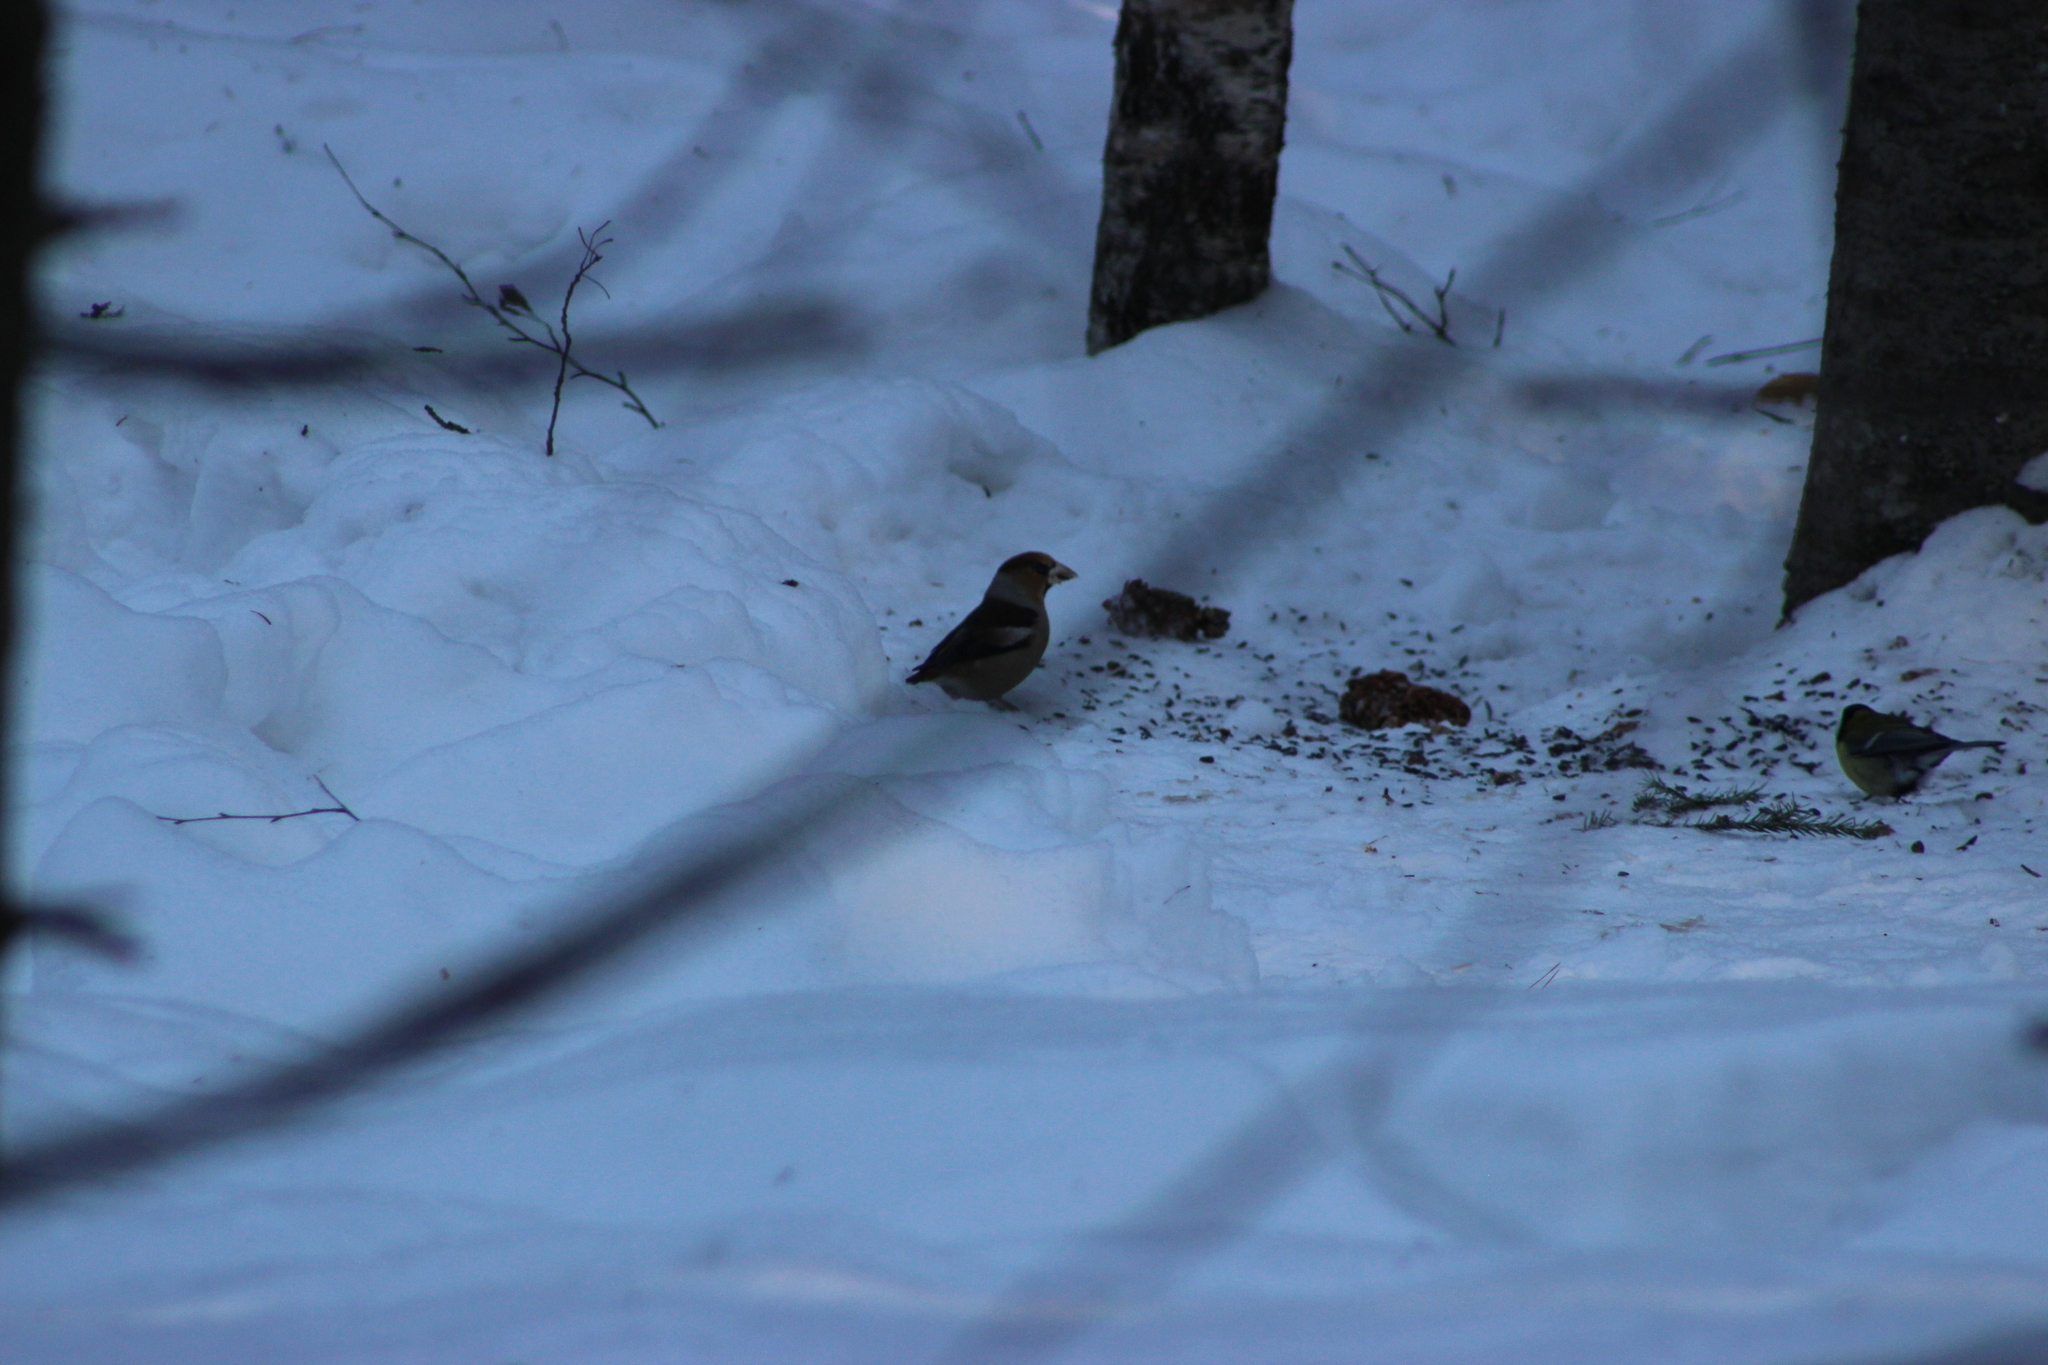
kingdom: Animalia
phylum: Chordata
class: Aves
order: Passeriformes
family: Fringillidae
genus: Coccothraustes
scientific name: Coccothraustes coccothraustes
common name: Hawfinch
